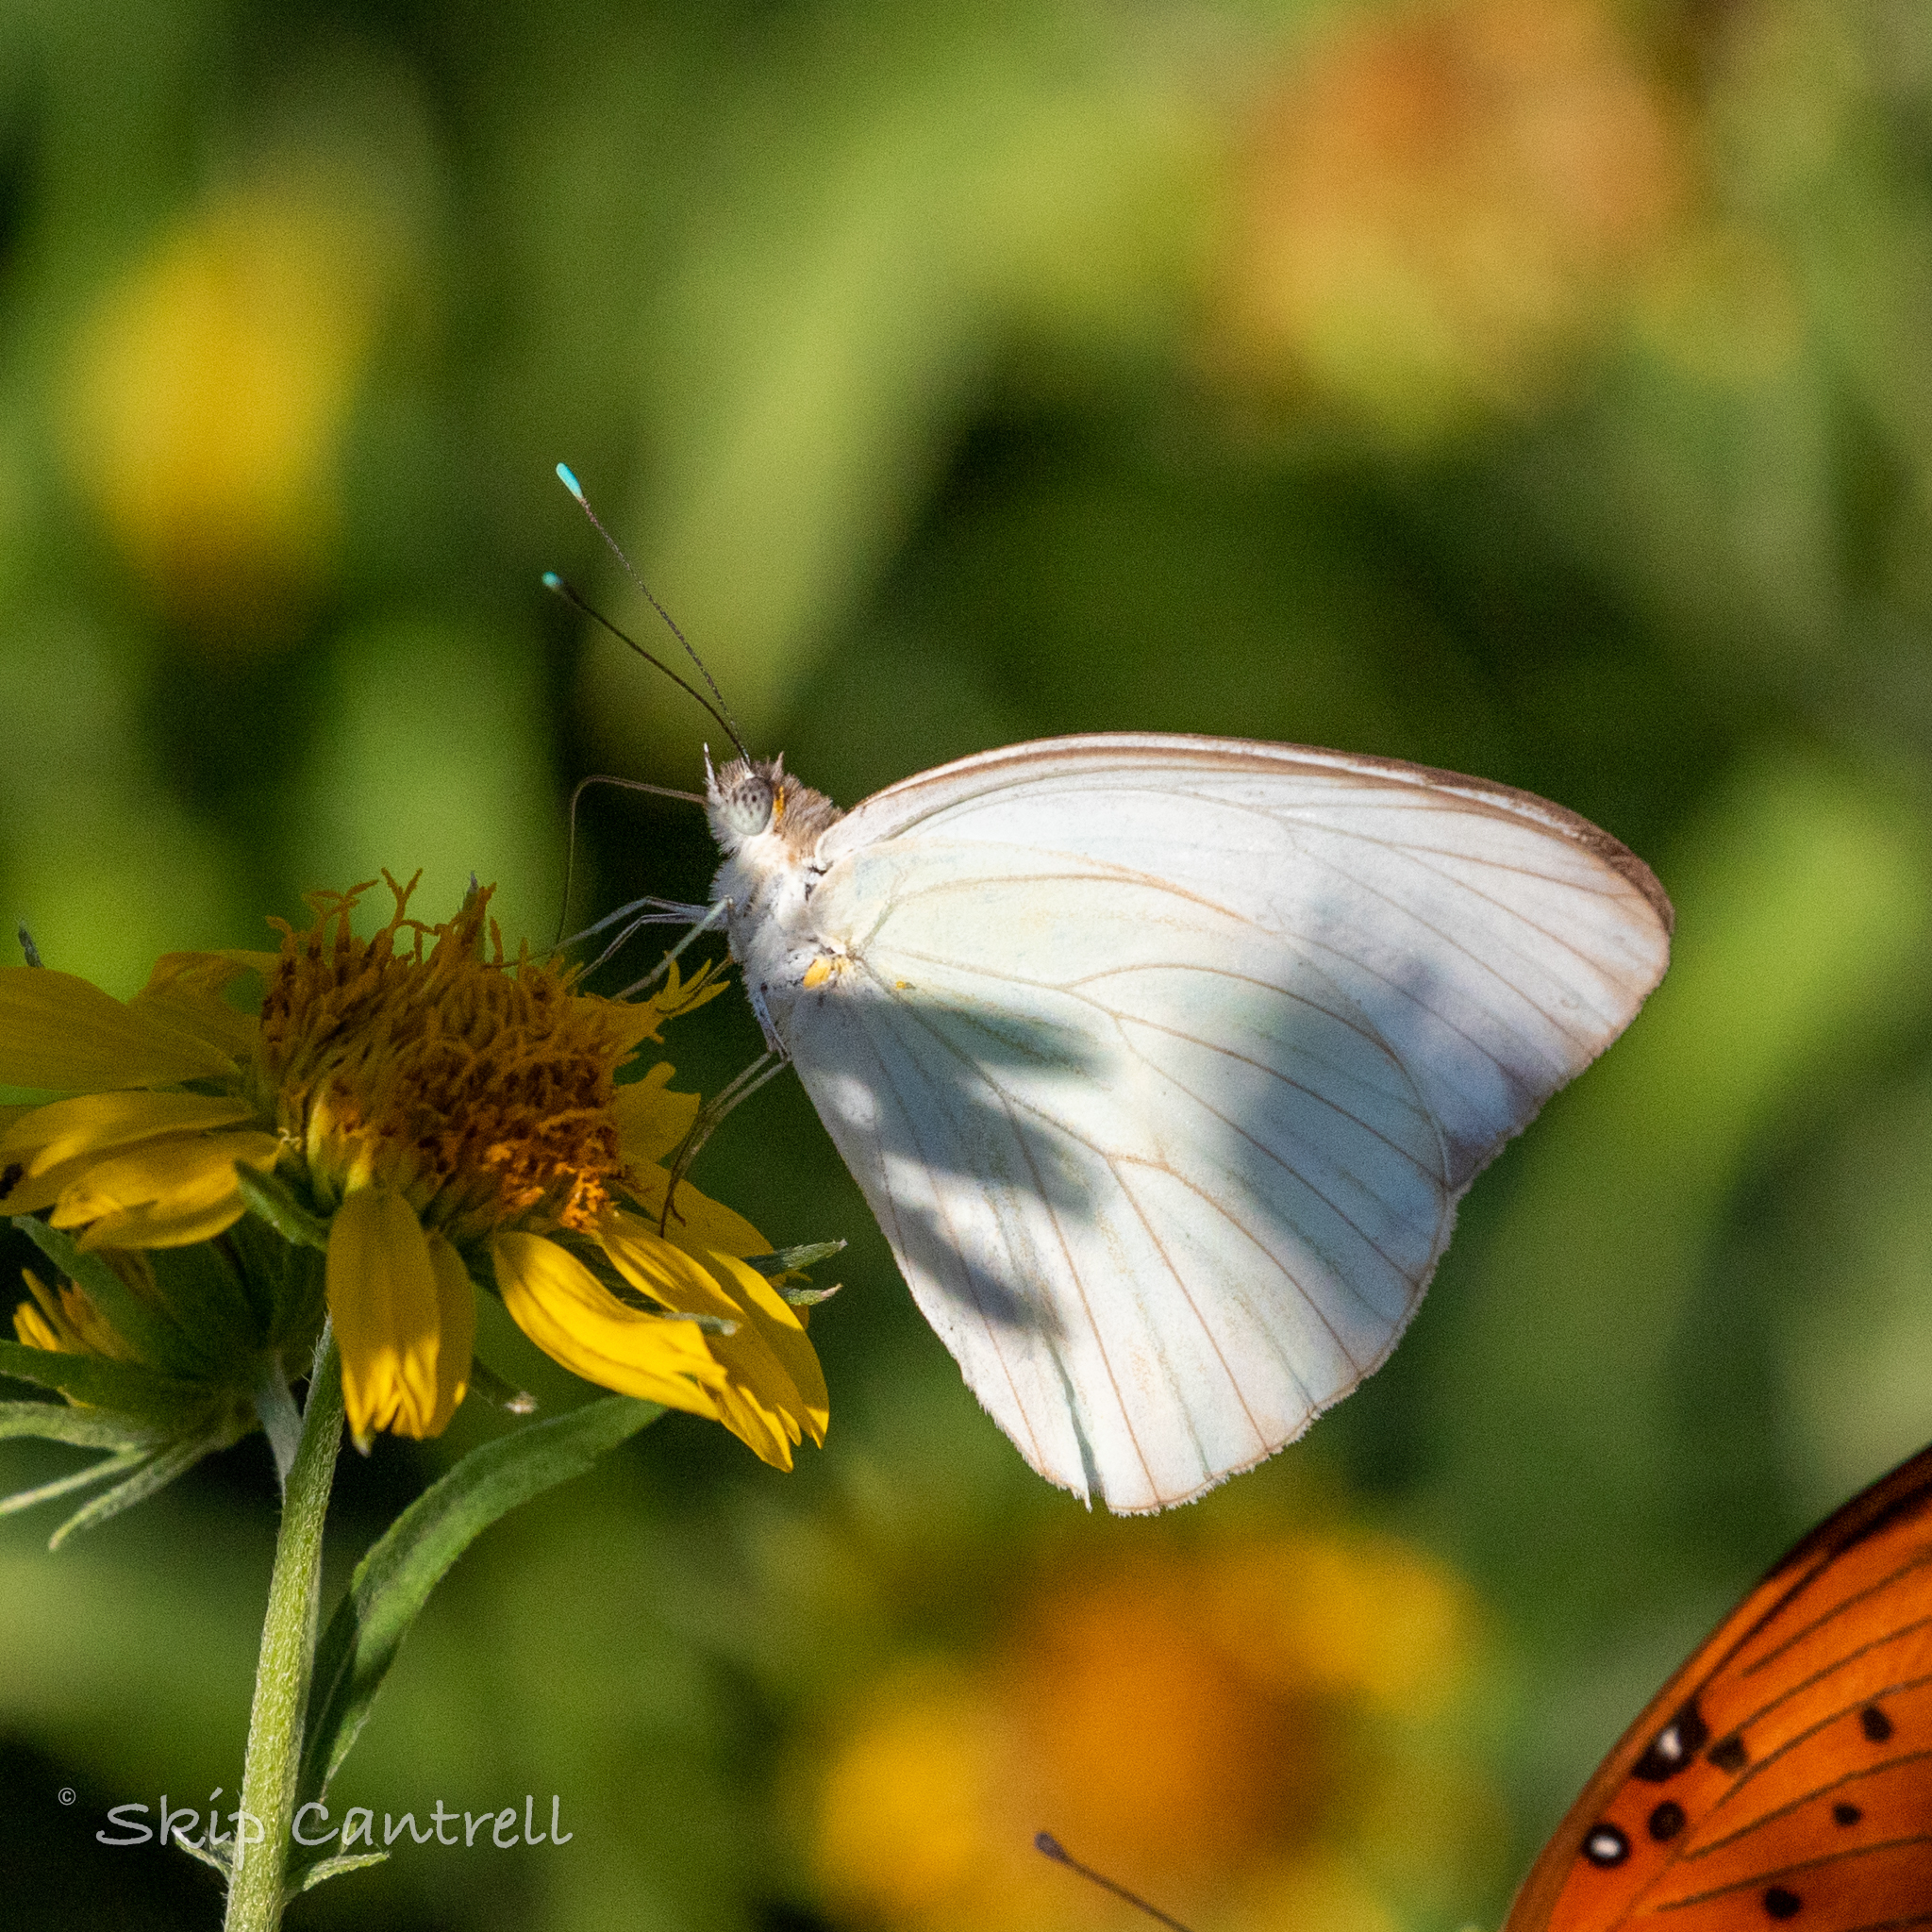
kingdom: Animalia
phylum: Arthropoda
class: Insecta
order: Lepidoptera
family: Pieridae
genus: Ascia
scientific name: Ascia monuste
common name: Great southern white
